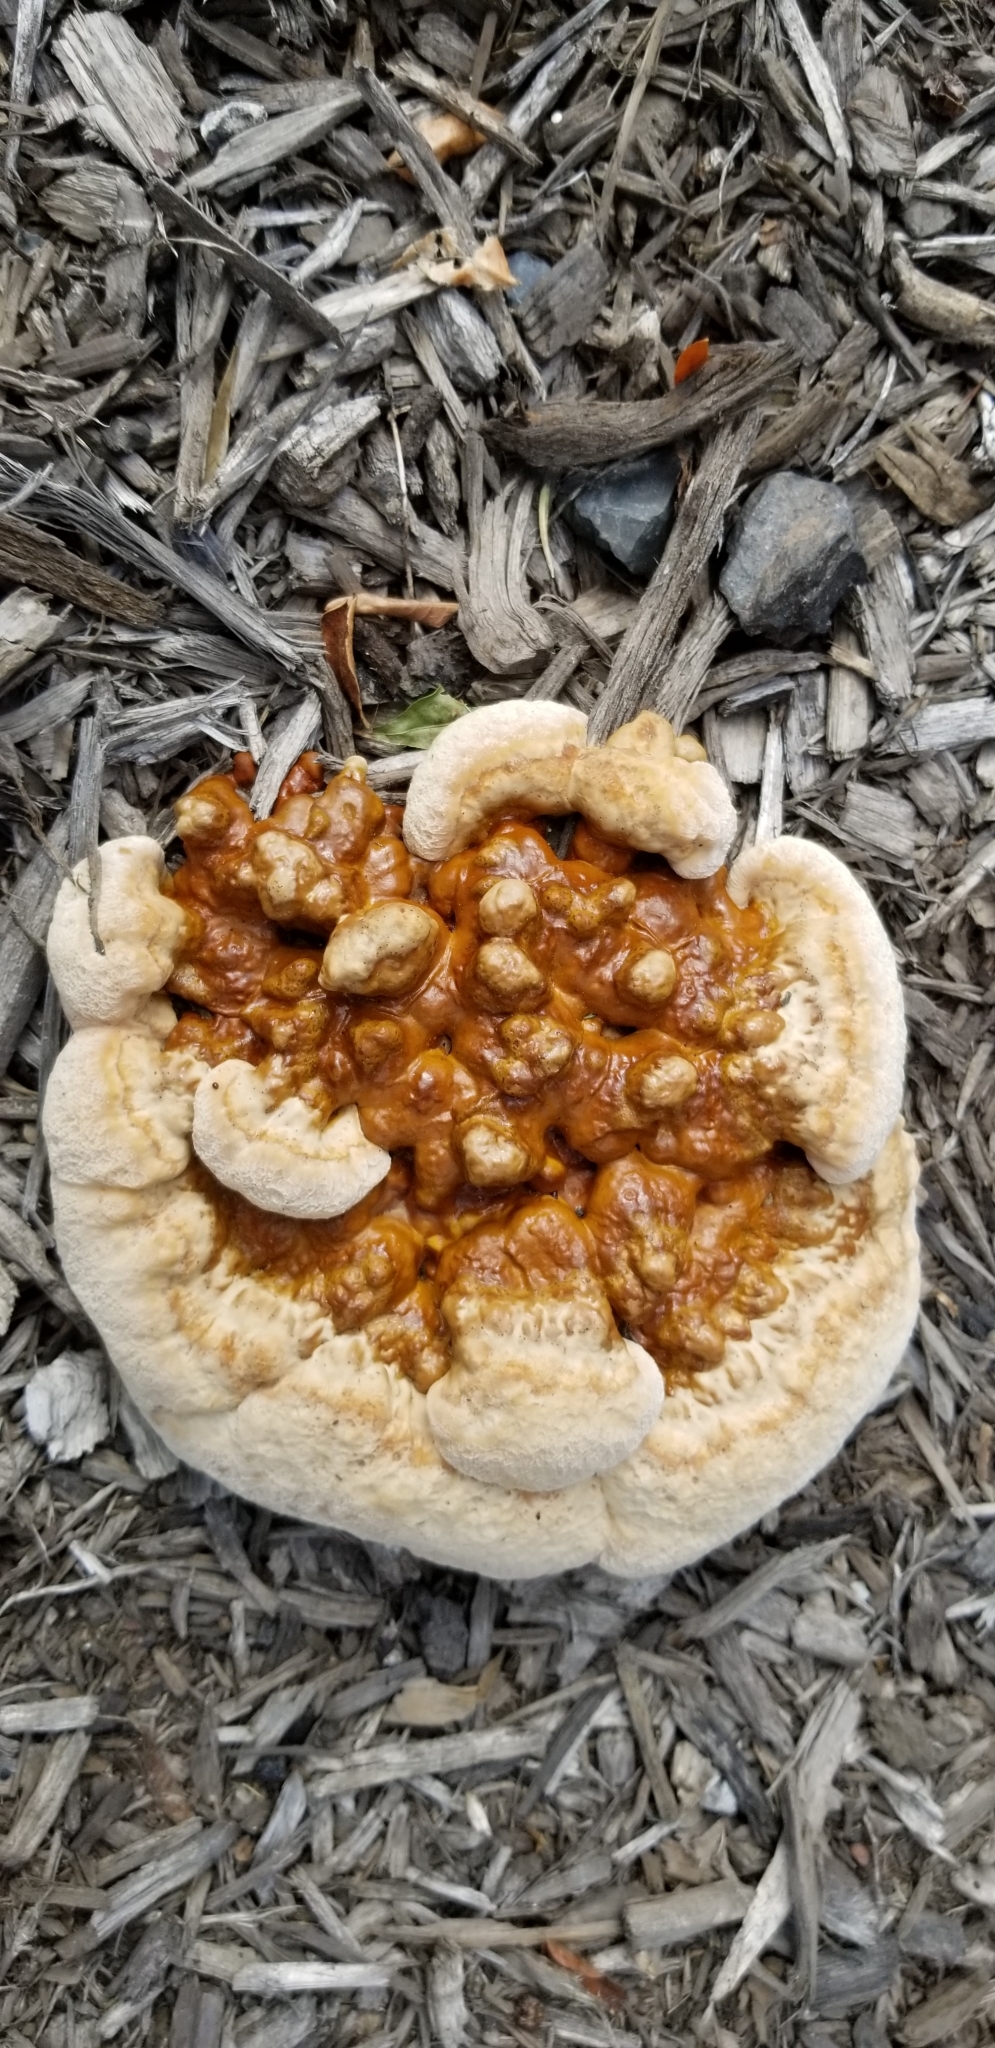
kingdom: Fungi
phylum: Basidiomycota
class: Agaricomycetes
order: Polyporales
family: Polyporaceae
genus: Ganoderma
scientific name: Ganoderma resinaceum
